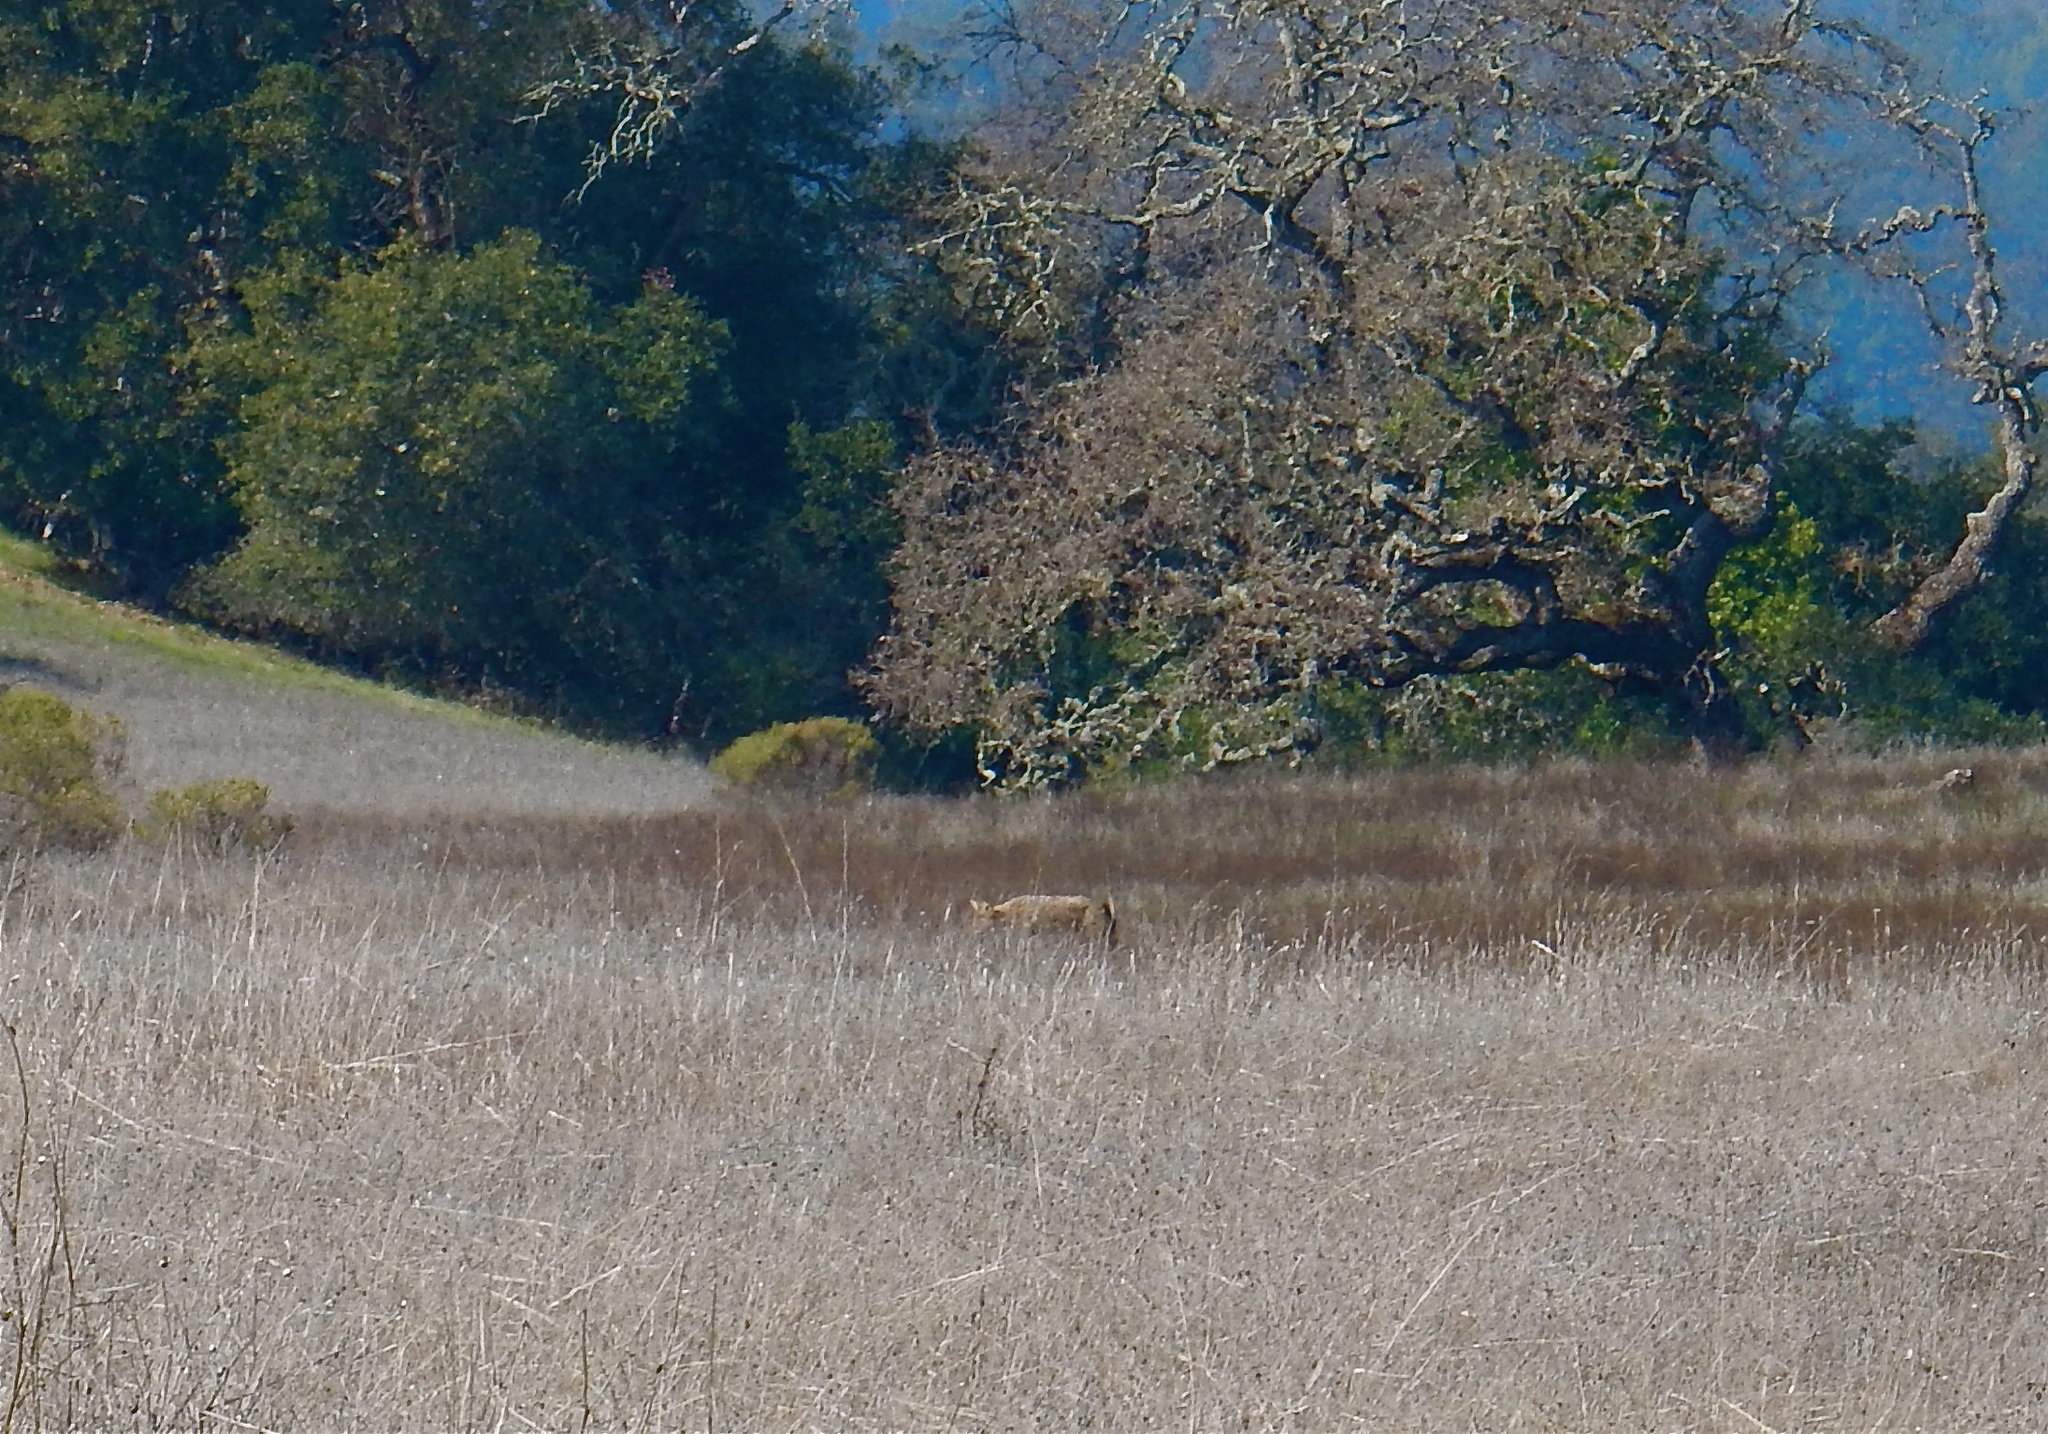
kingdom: Animalia
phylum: Chordata
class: Mammalia
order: Carnivora
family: Felidae
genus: Puma
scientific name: Puma concolor
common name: Puma
